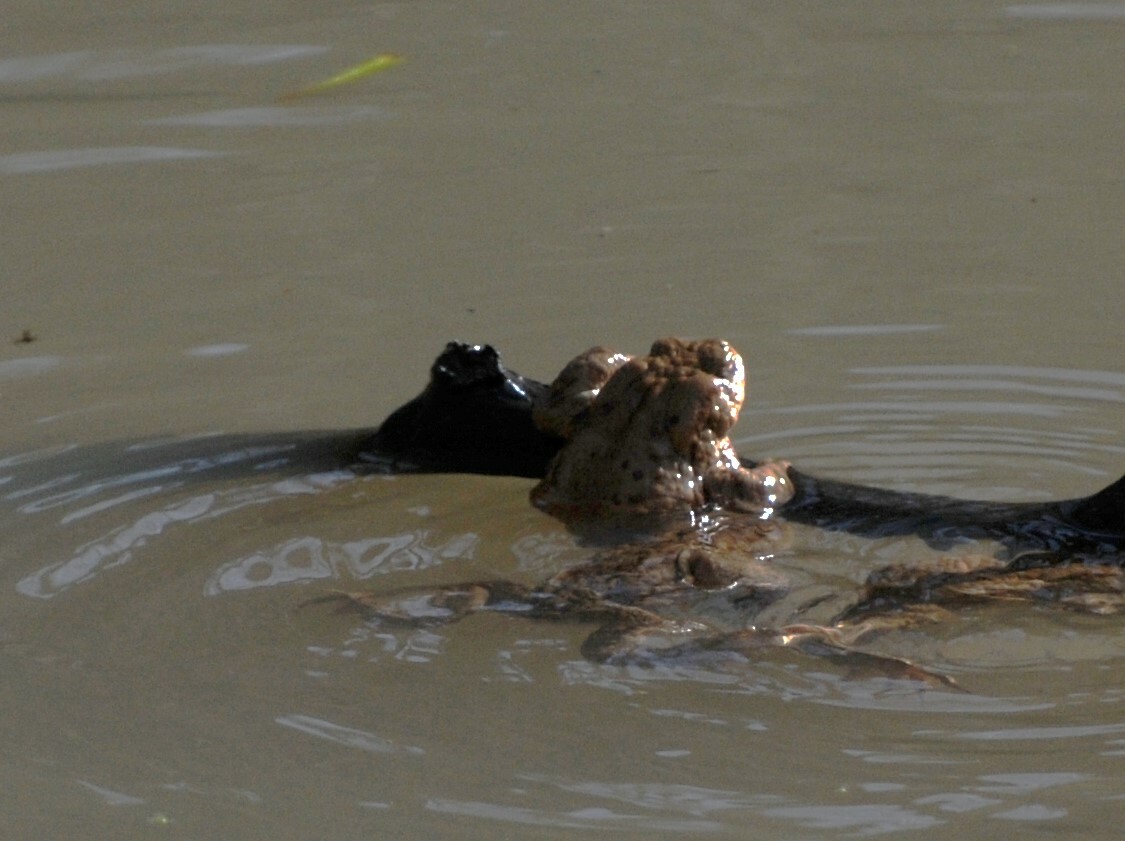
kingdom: Animalia
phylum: Chordata
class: Amphibia
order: Anura
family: Bufonidae
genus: Bufo
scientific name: Bufo bufo
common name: Common toad
